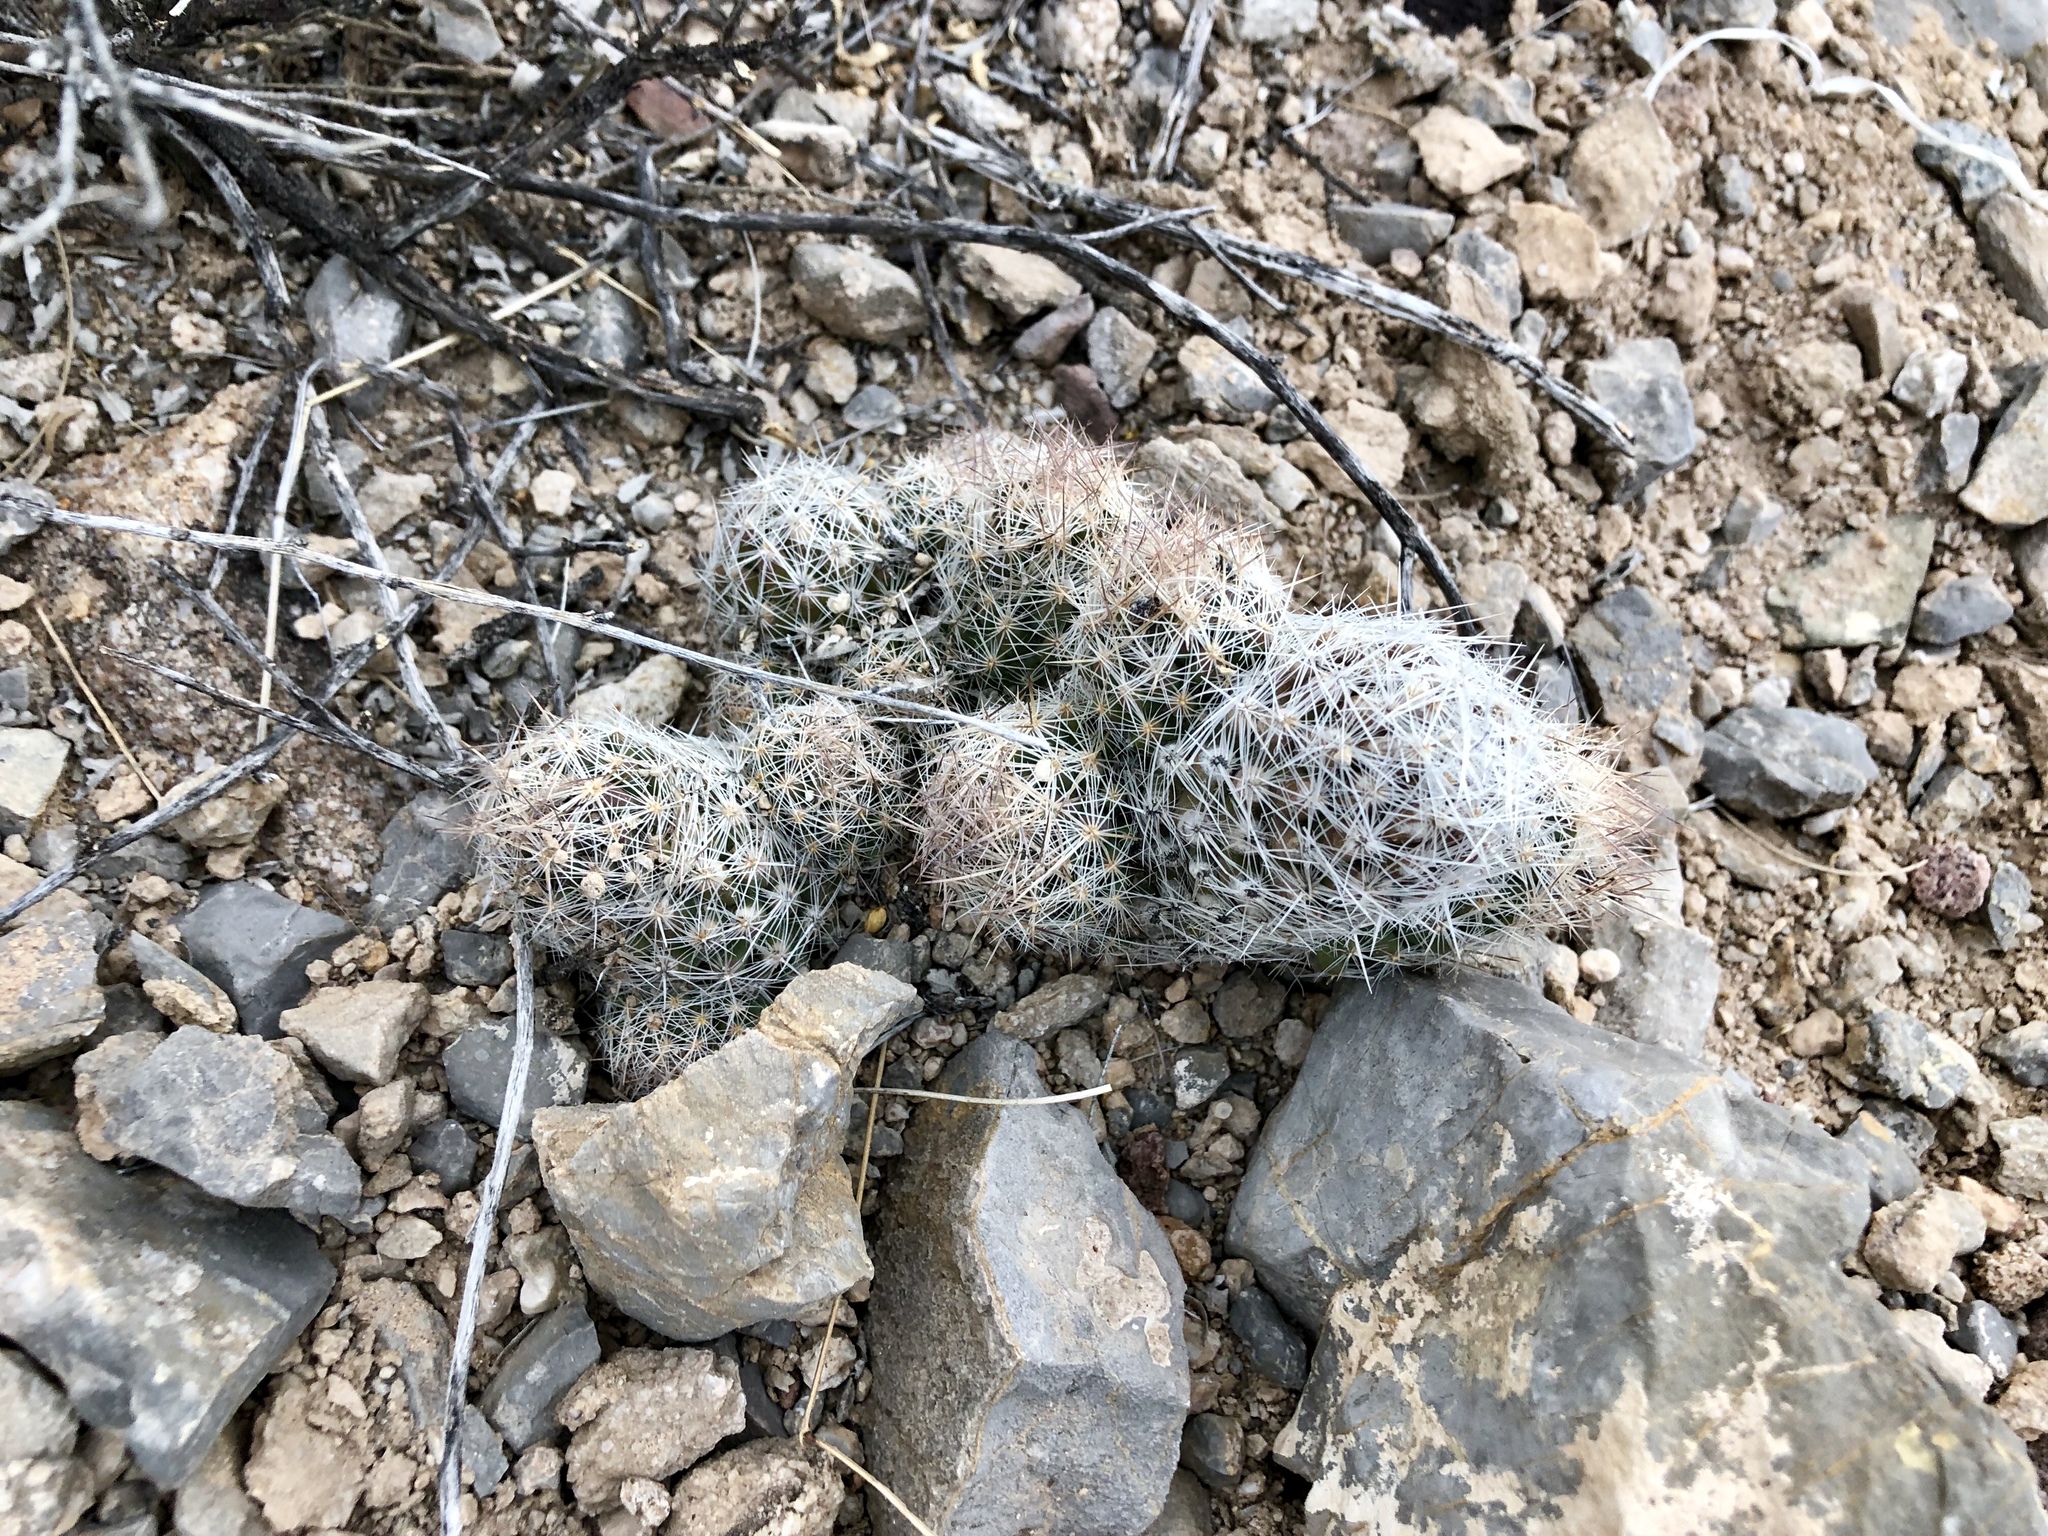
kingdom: Plantae
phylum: Tracheophyta
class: Magnoliopsida
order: Caryophyllales
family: Cactaceae
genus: Pelecyphora
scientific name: Pelecyphora tuberculosa
